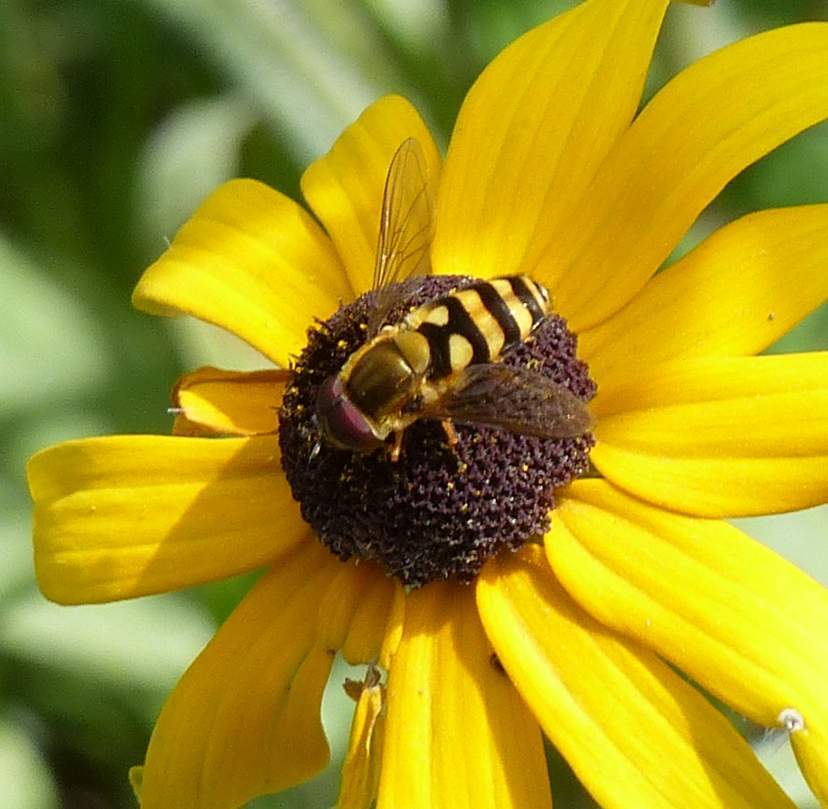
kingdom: Animalia
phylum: Arthropoda
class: Insecta
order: Diptera
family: Syrphidae
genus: Syrphus
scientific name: Syrphus
